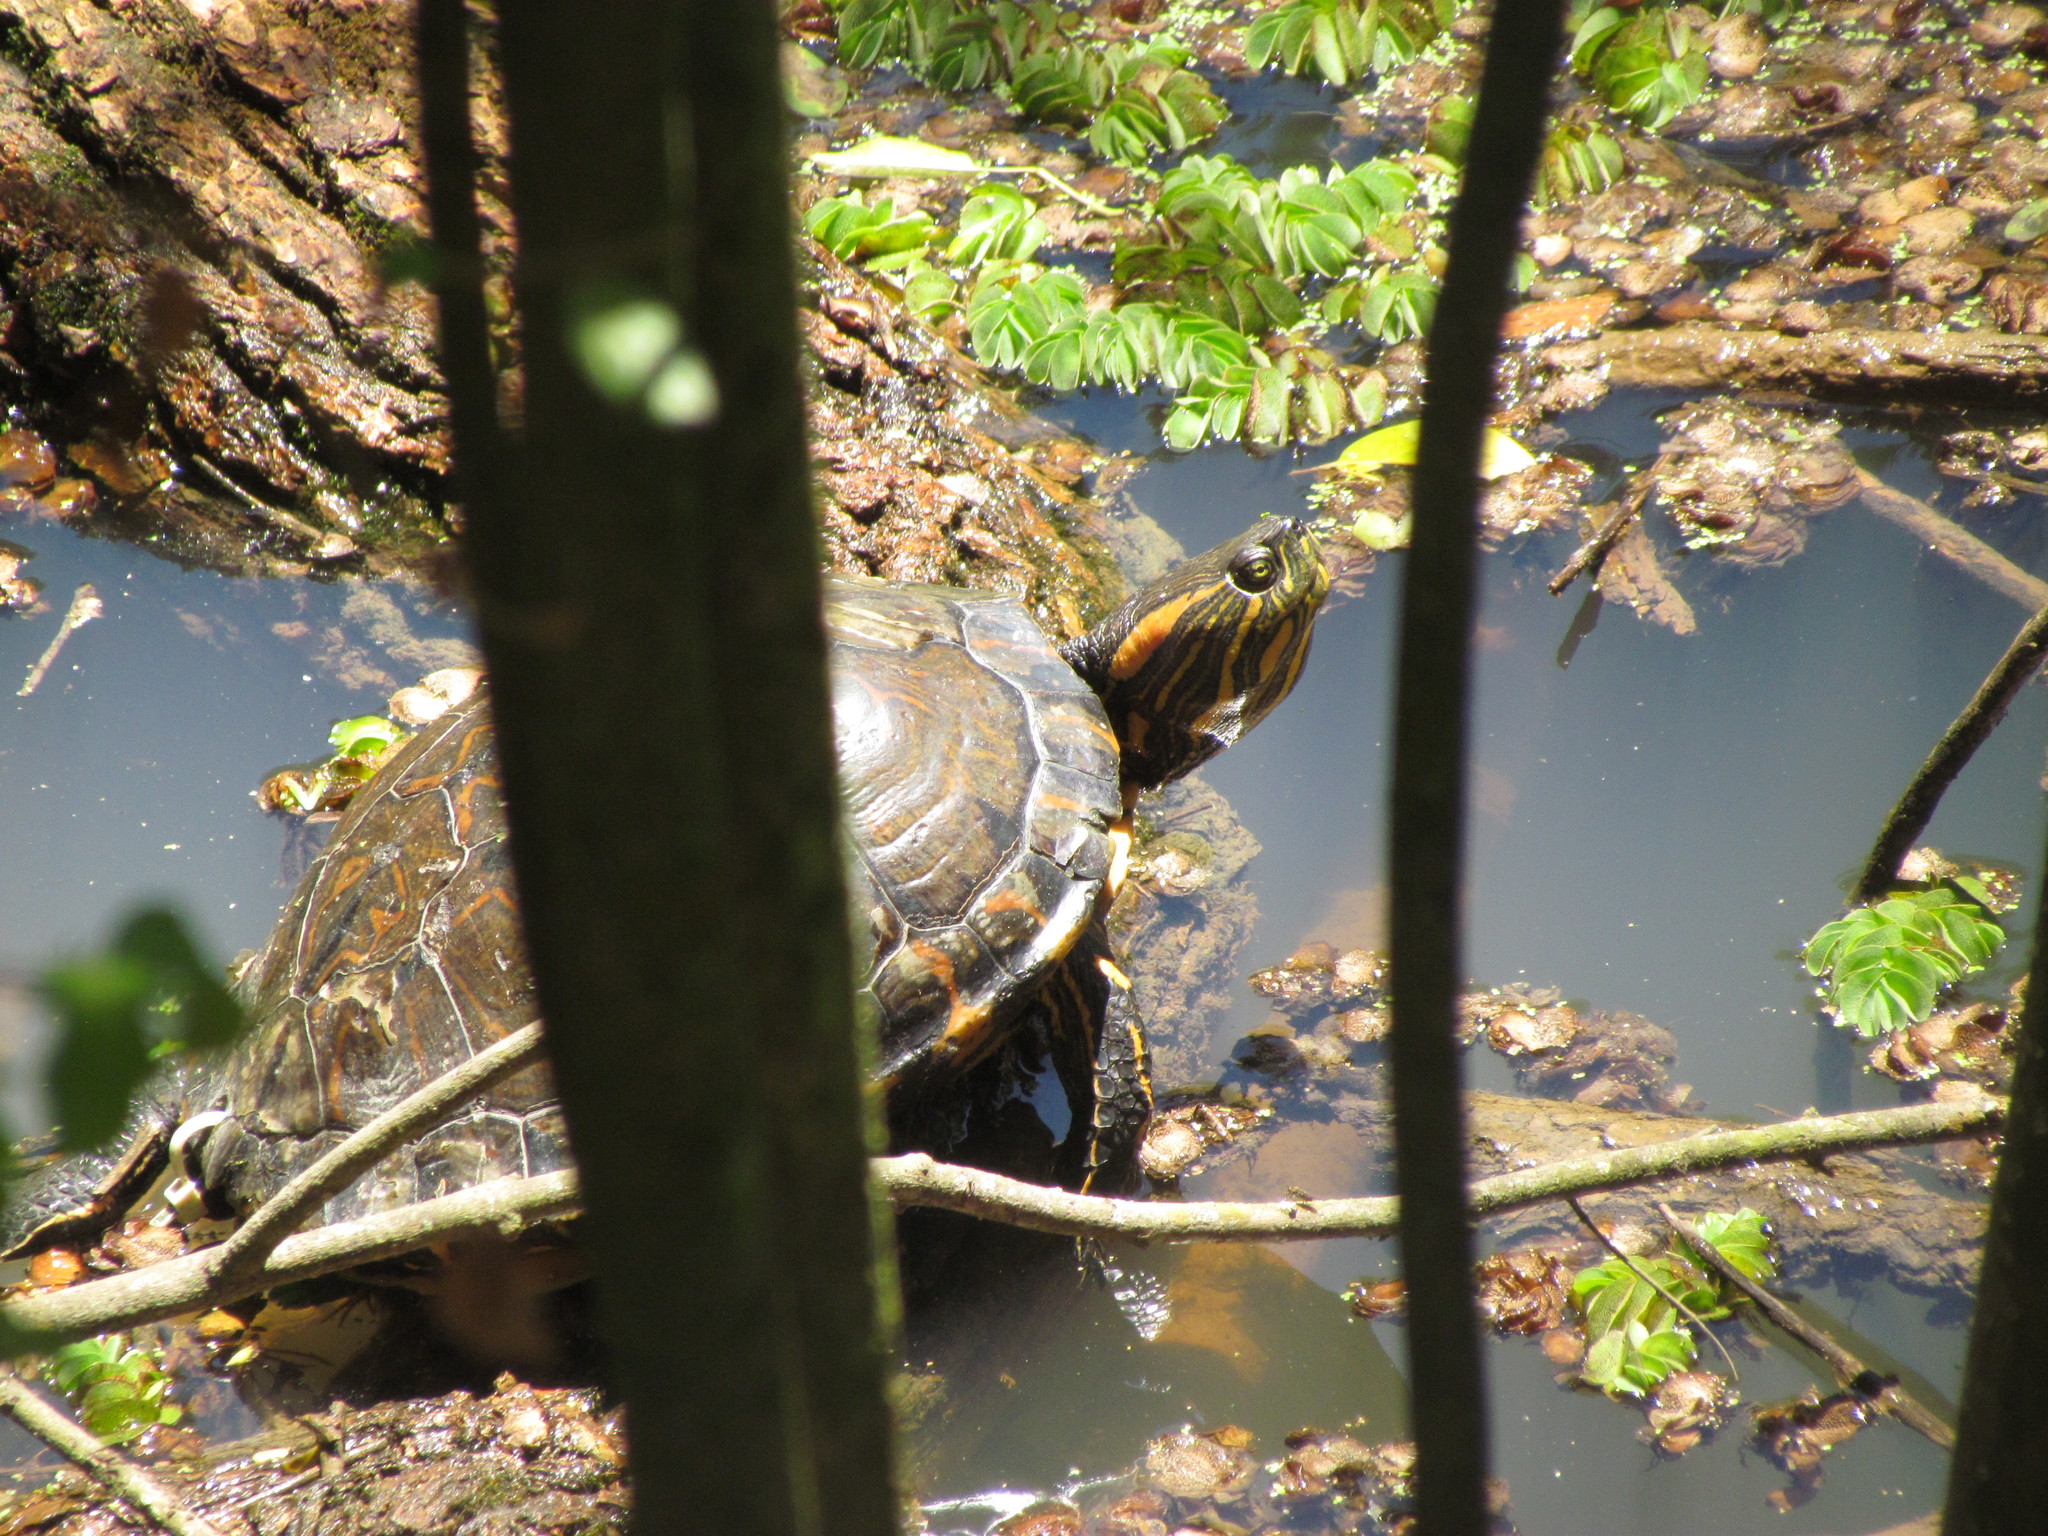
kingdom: Animalia
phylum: Chordata
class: Testudines
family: Emydidae
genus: Trachemys
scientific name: Trachemys dorbigni
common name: Black-bellied slider
